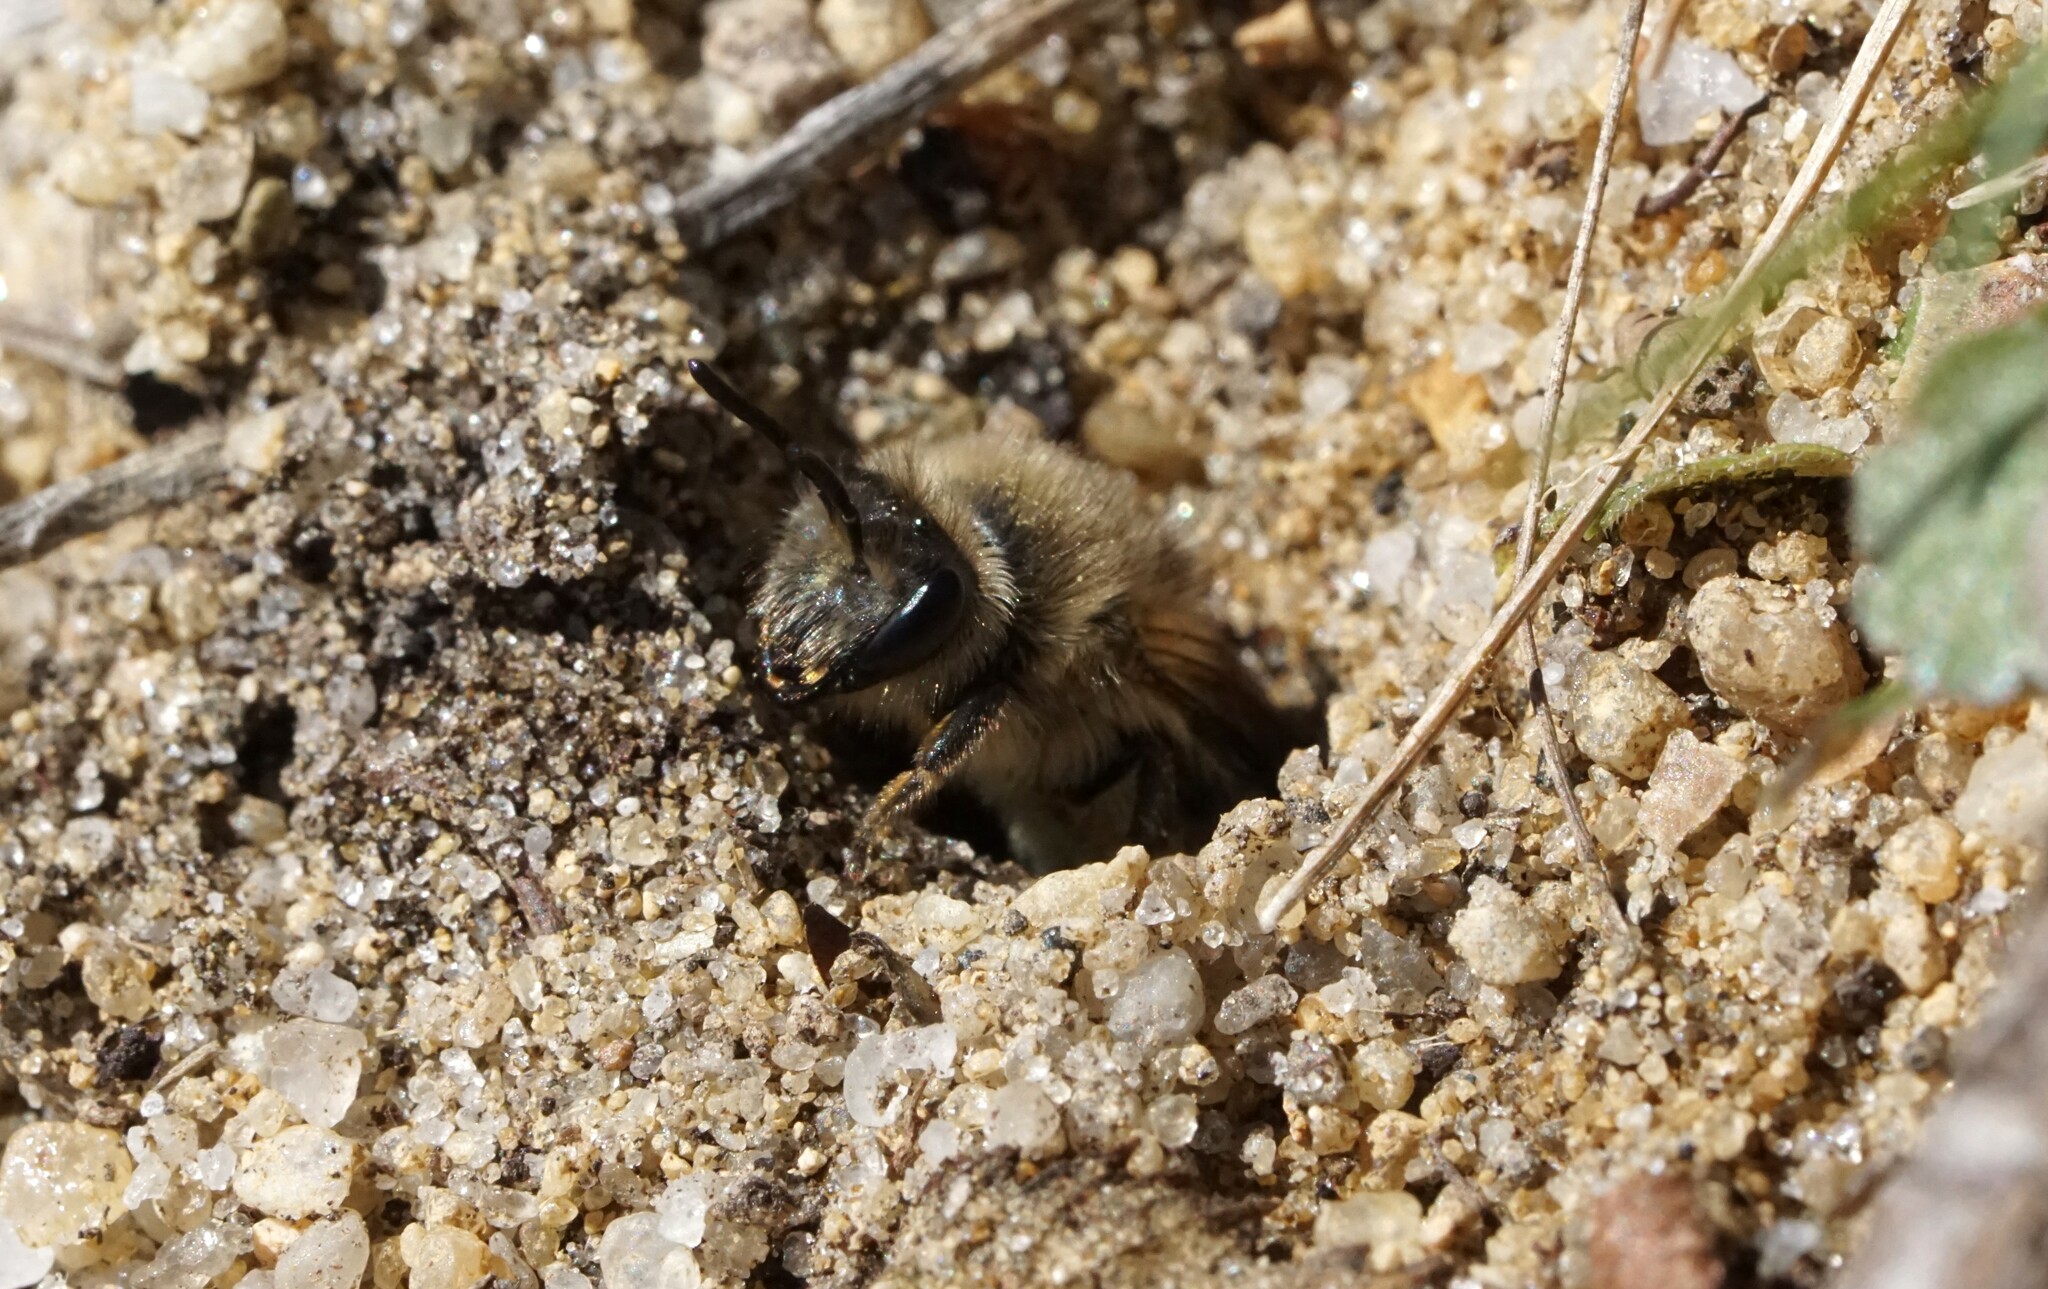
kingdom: Animalia
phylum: Arthropoda
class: Insecta
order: Hymenoptera
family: Colletidae
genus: Colletes
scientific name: Colletes inaequalis
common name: Unequal cellophane bee
